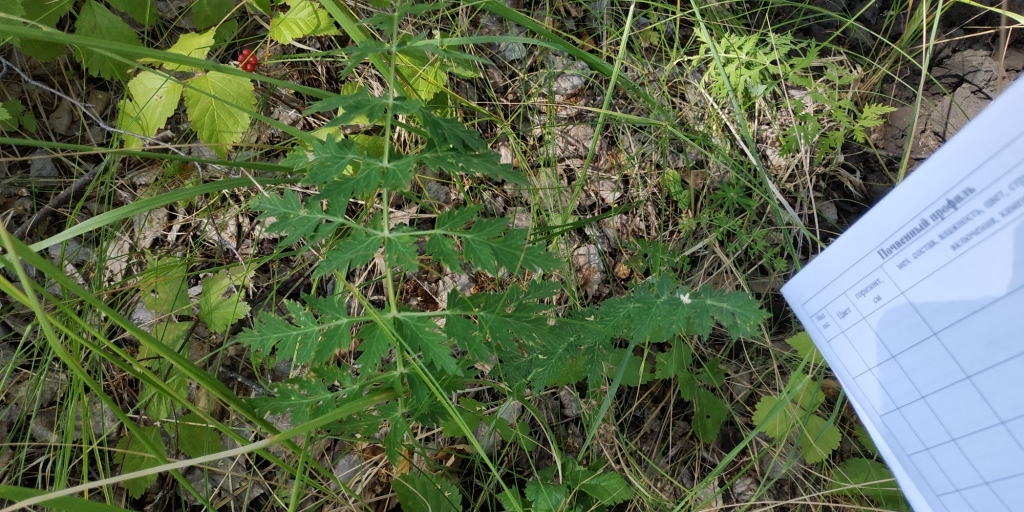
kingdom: Plantae
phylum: Tracheophyta
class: Magnoliopsida
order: Apiales
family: Apiaceae
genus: Seseli
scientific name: Seseli libanotis
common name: Mooncarrot
